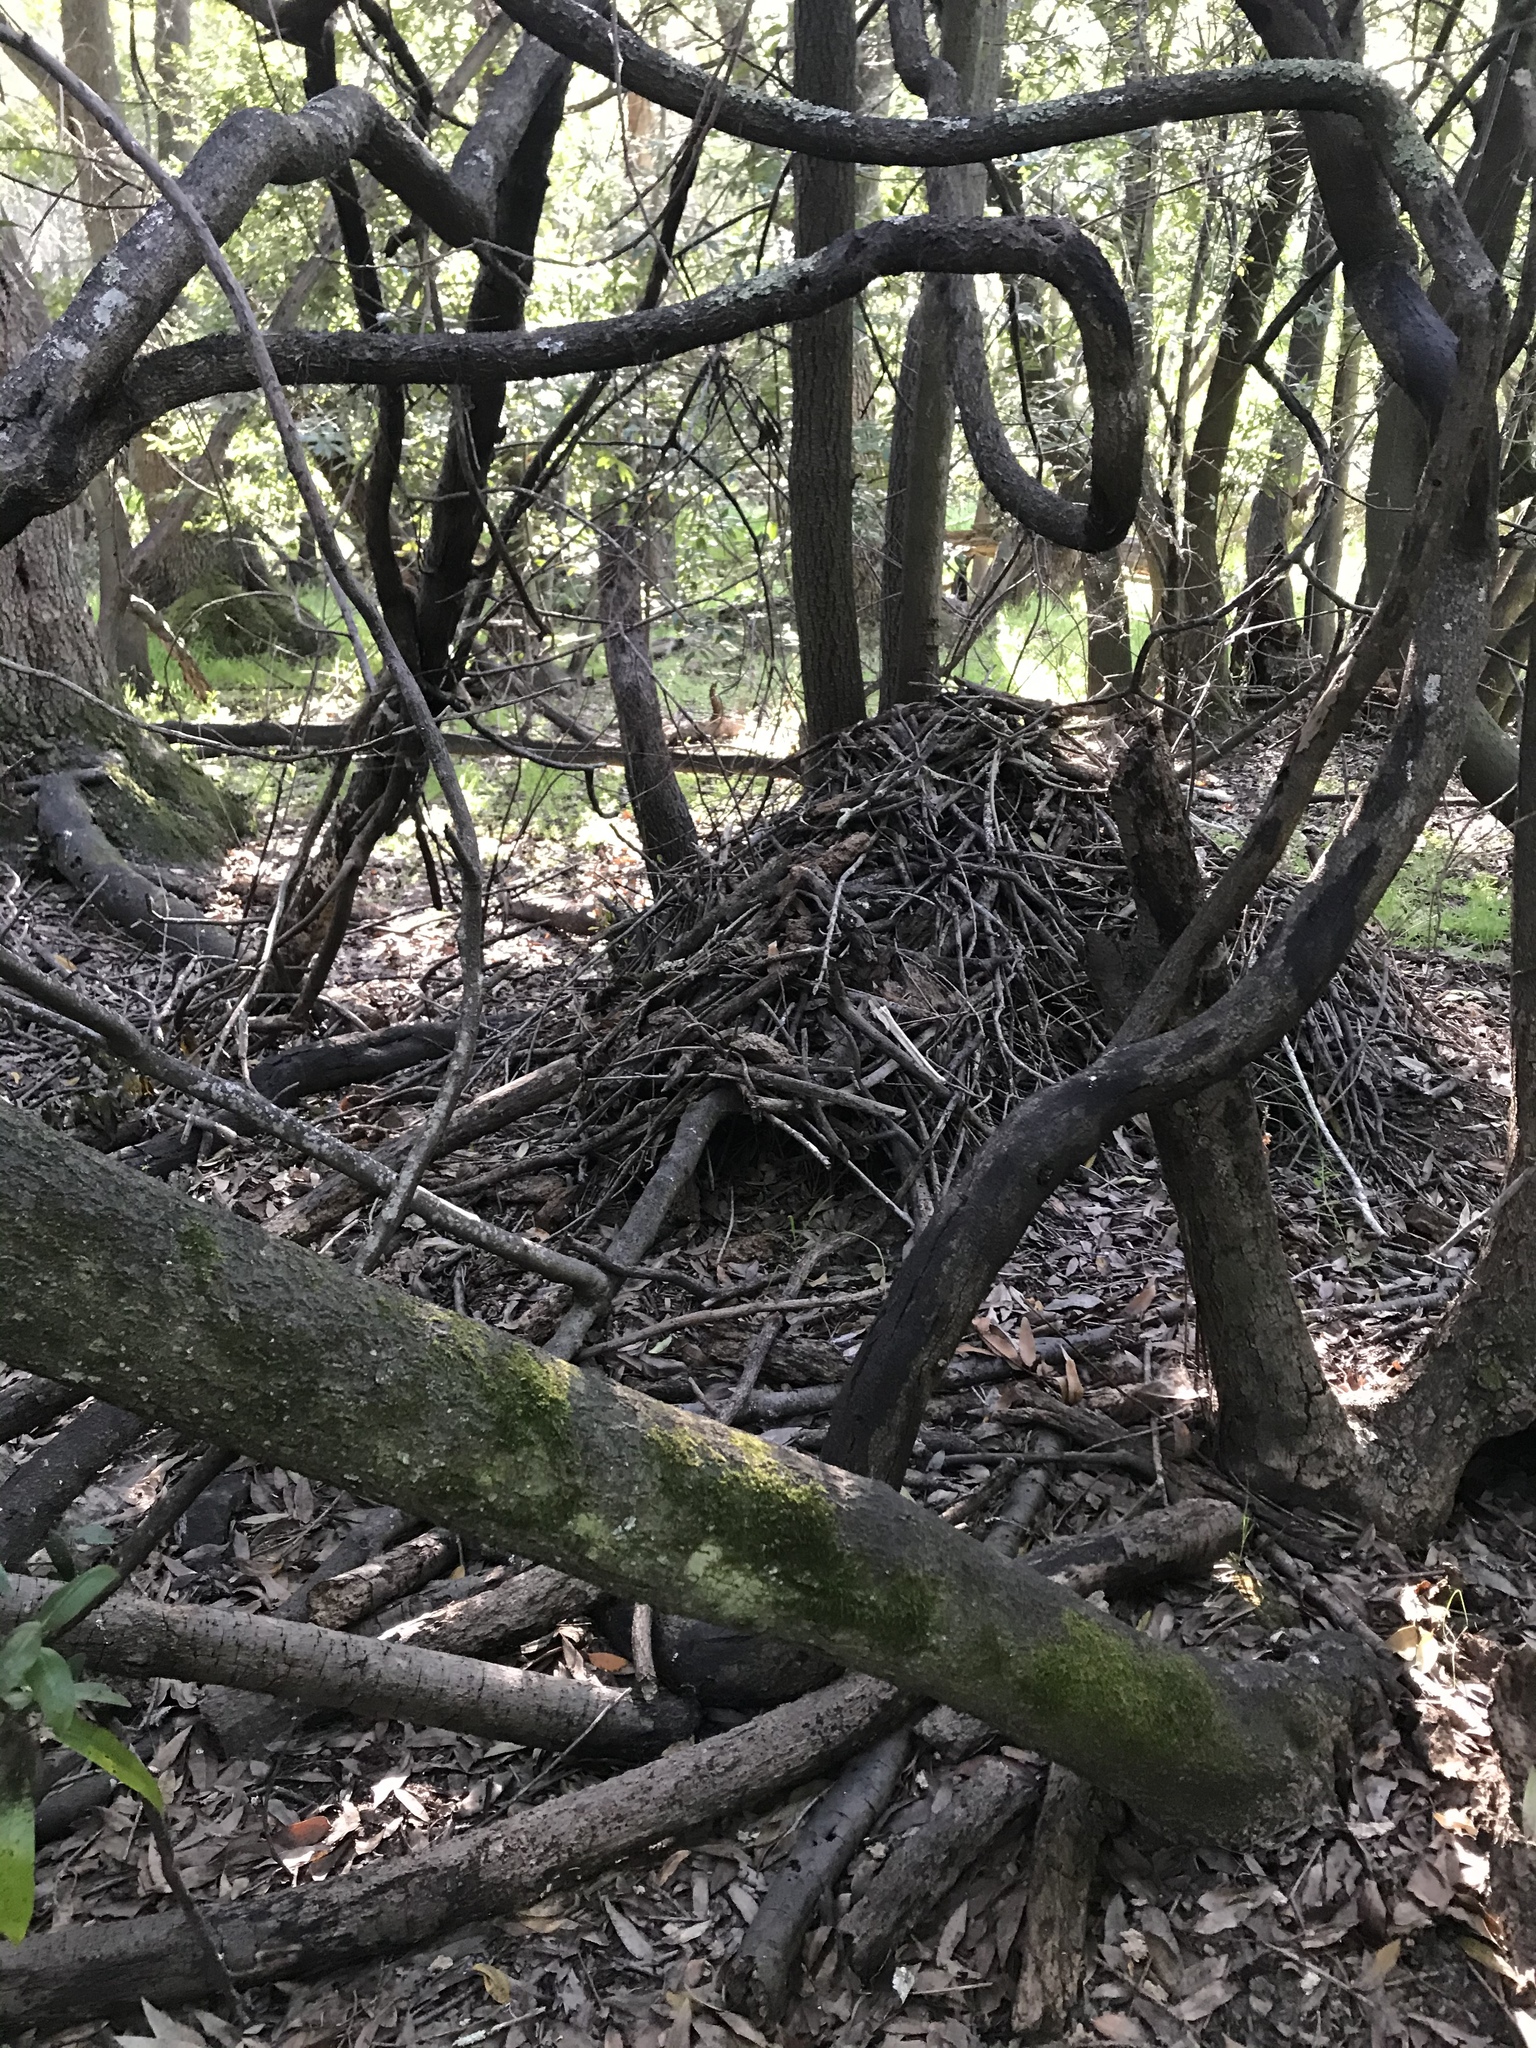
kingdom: Animalia
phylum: Chordata
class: Mammalia
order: Rodentia
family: Cricetidae
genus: Neotoma
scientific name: Neotoma fuscipes
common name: Dusky-footed woodrat
